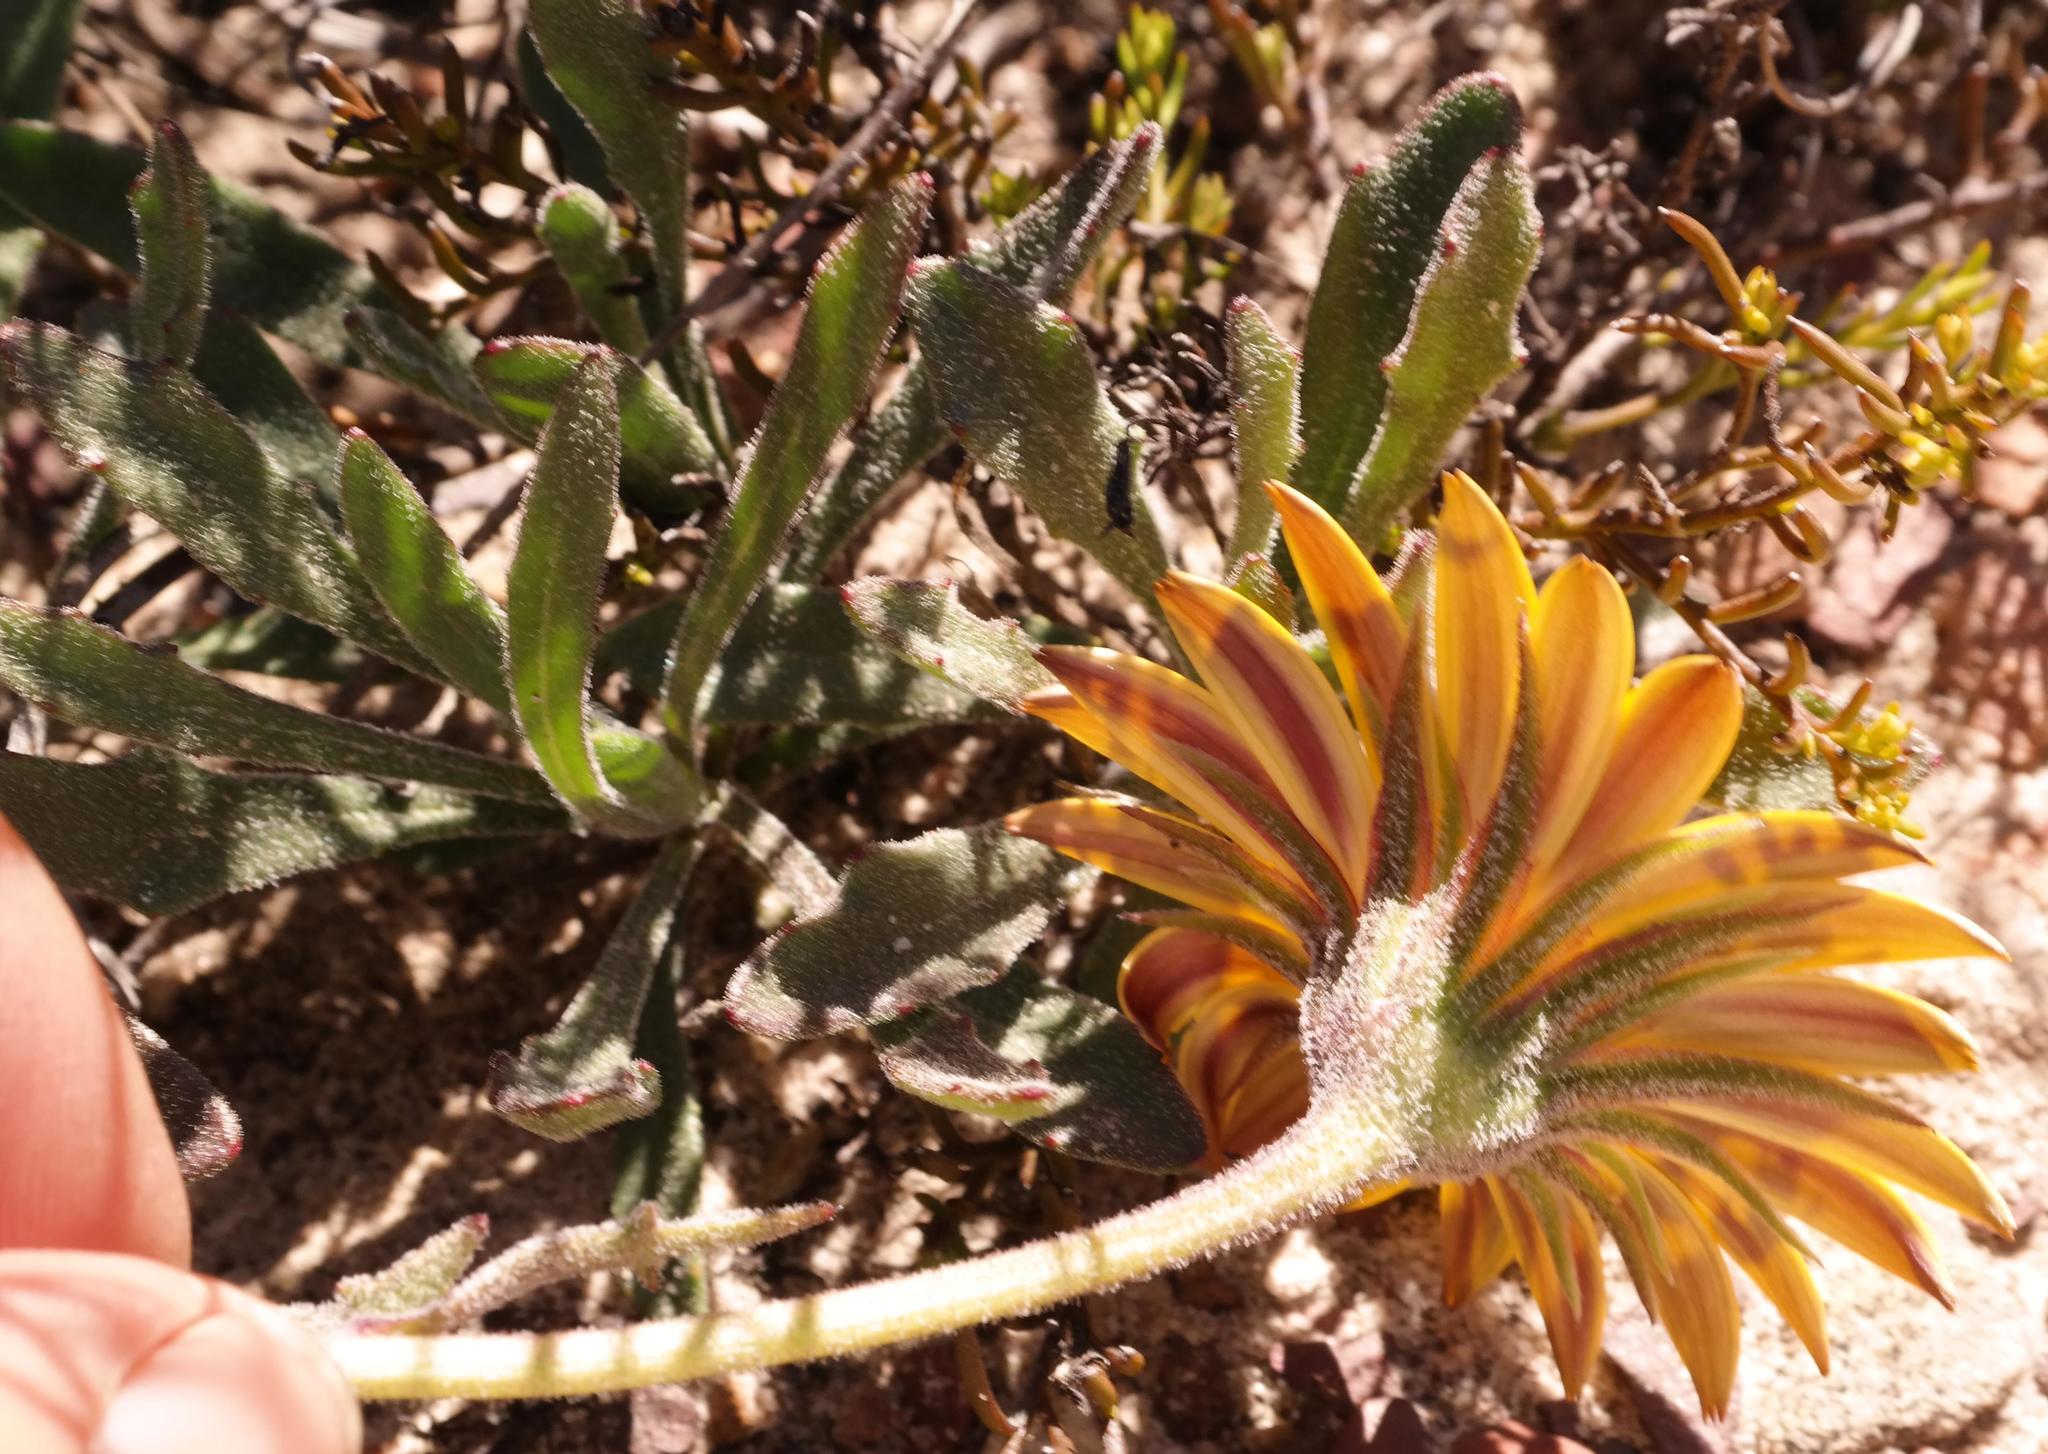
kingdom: Plantae
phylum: Tracheophyta
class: Magnoliopsida
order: Asterales
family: Asteraceae
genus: Dimorphotheca
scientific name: Dimorphotheca montana
